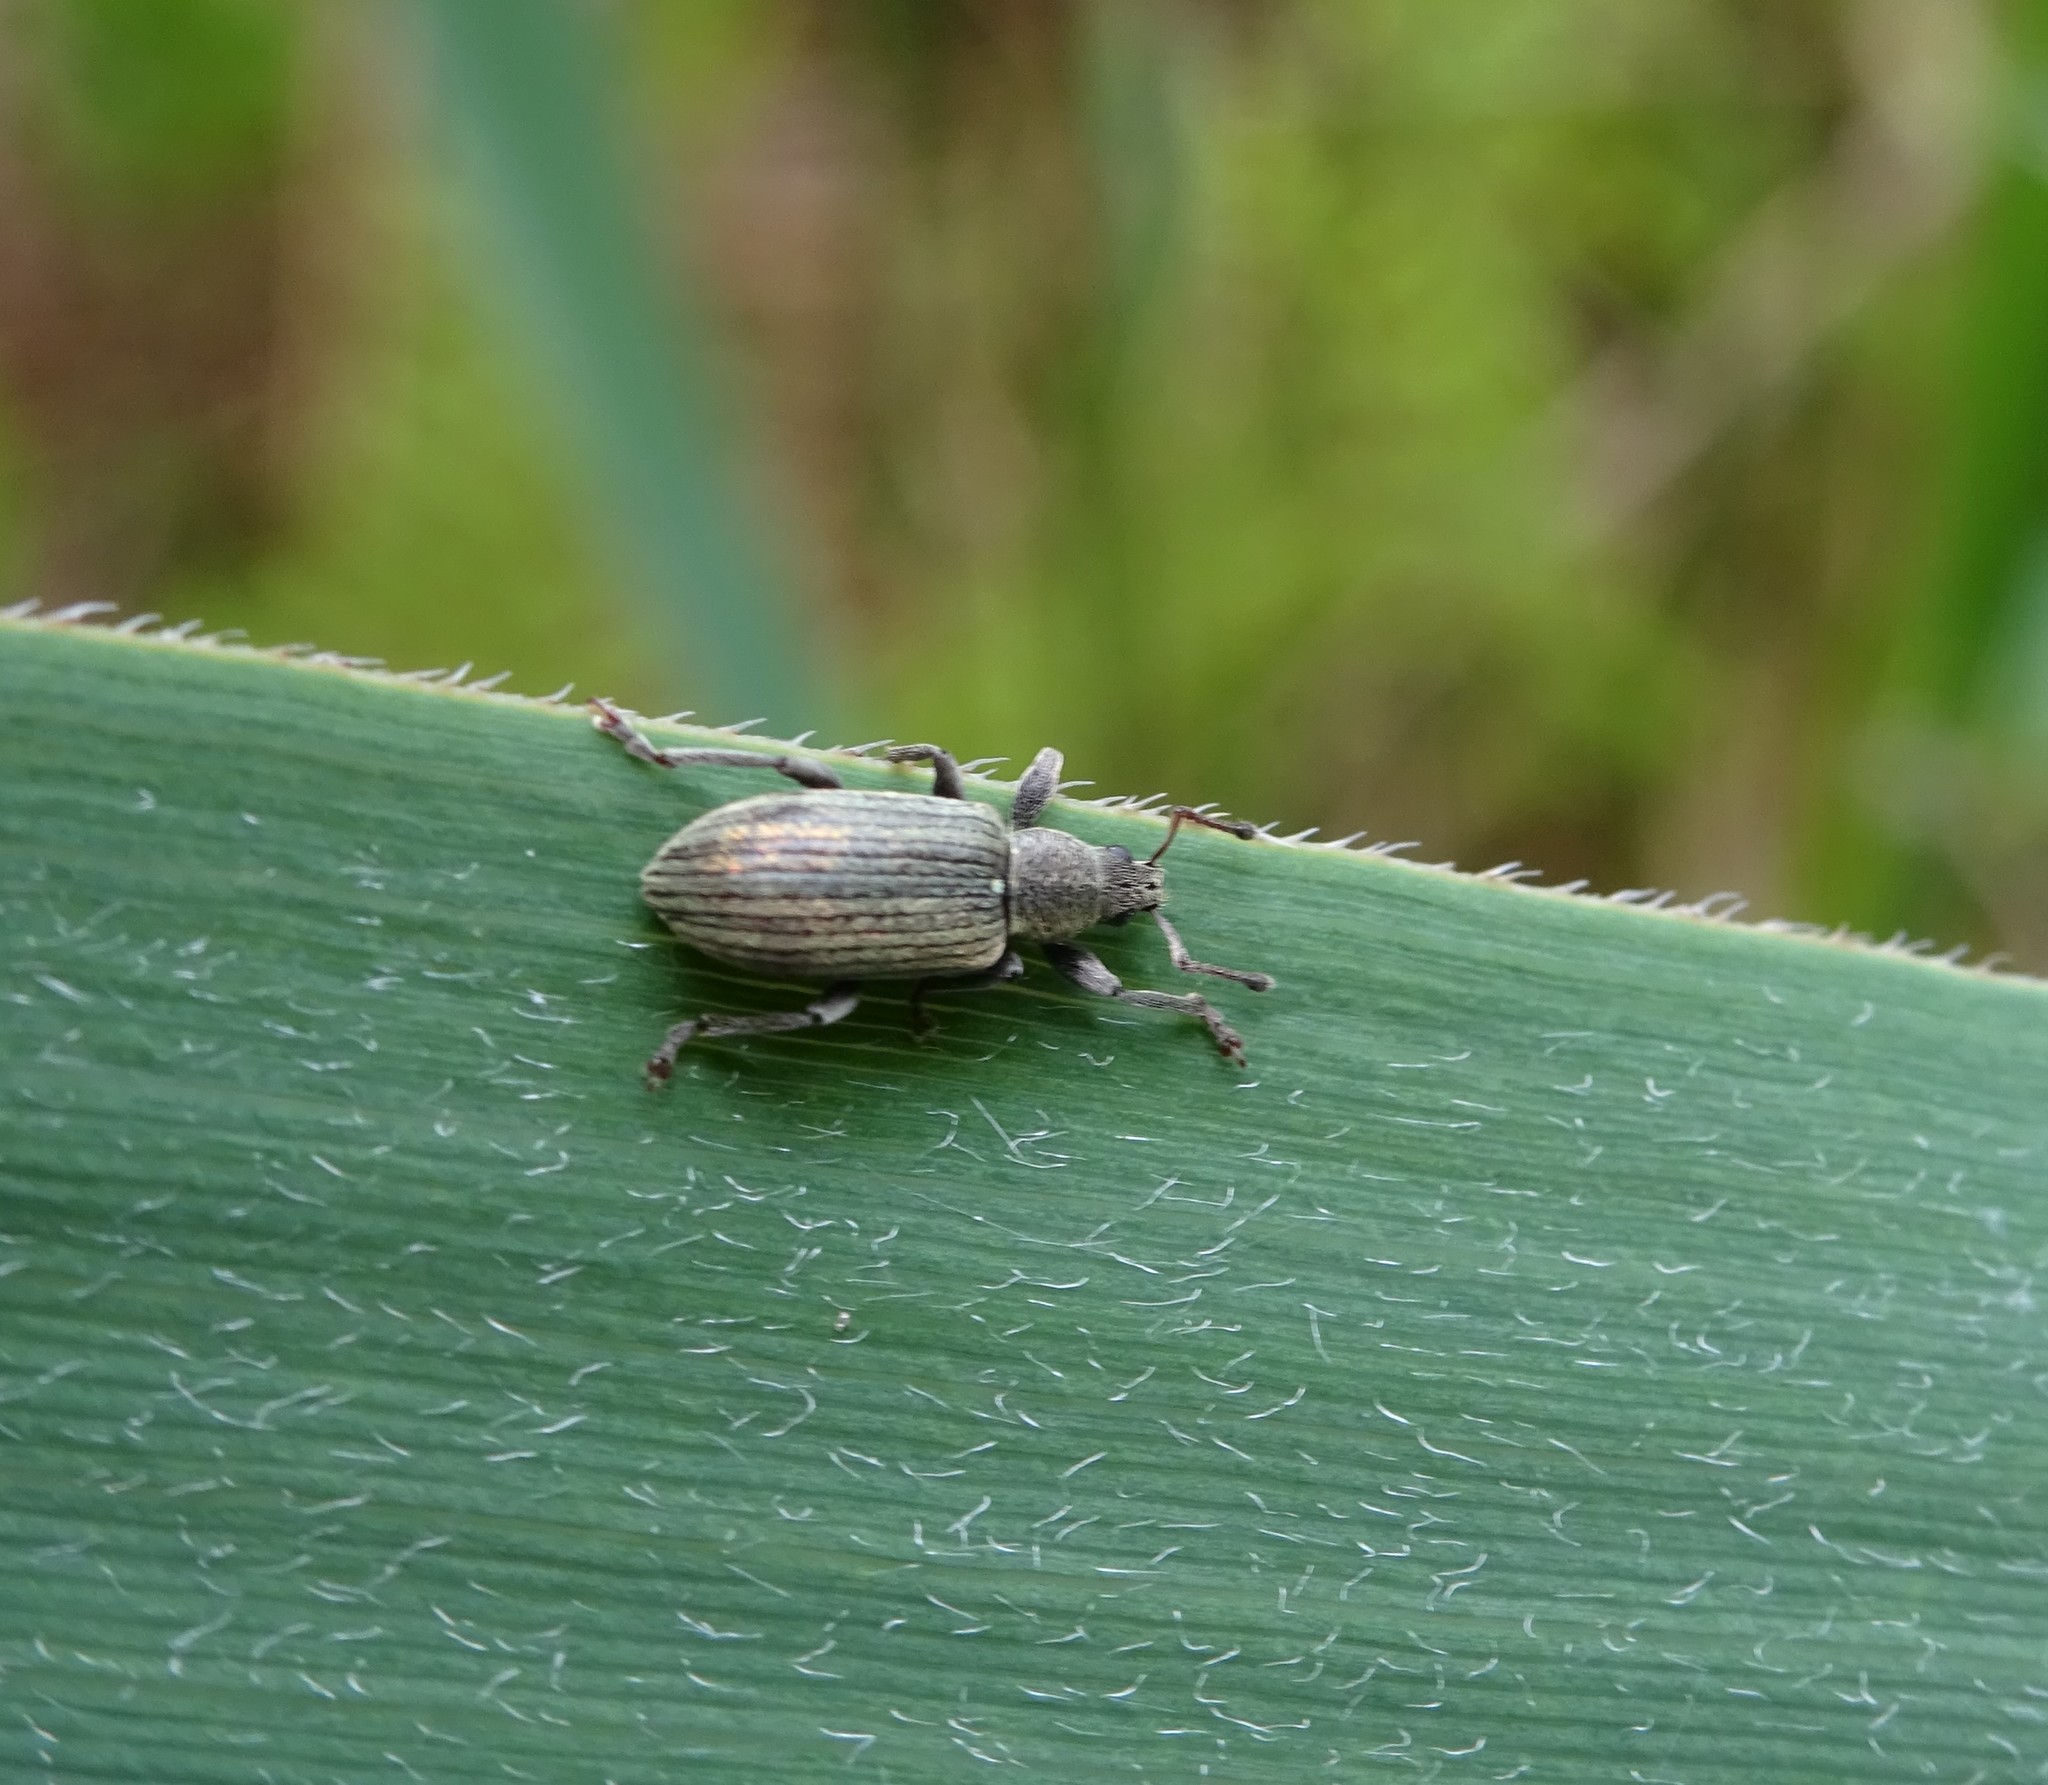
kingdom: Animalia
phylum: Arthropoda
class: Insecta
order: Coleoptera
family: Curculionidae
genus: Polydrusus
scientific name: Polydrusus aeratus
